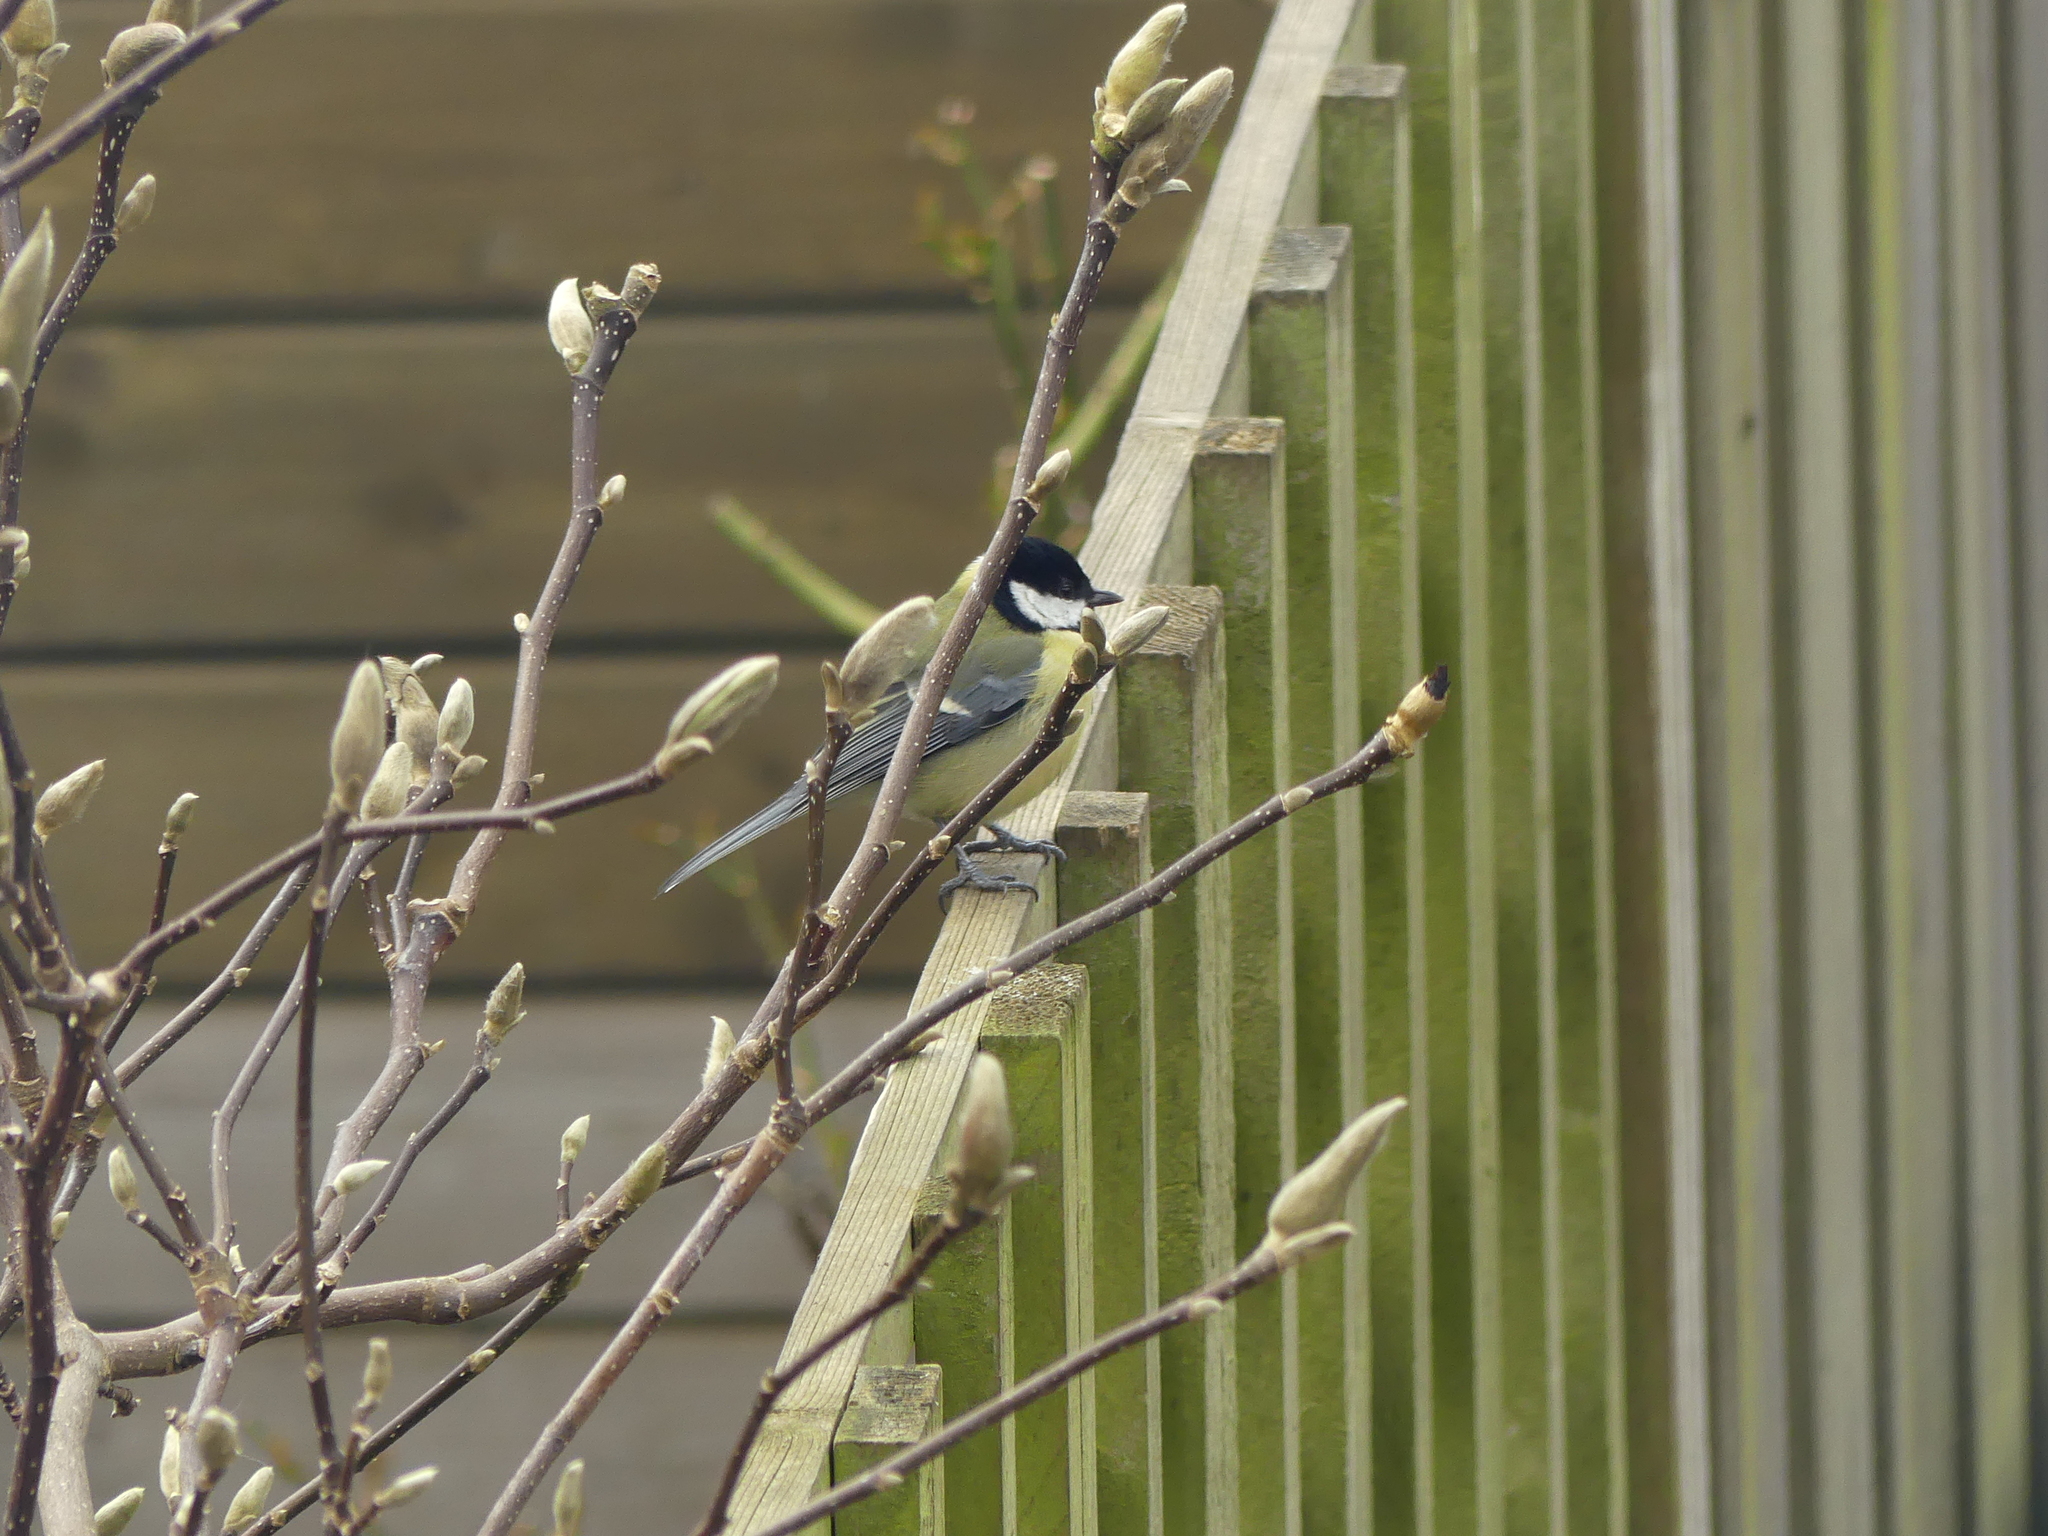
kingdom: Animalia
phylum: Chordata
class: Aves
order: Passeriformes
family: Paridae
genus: Parus
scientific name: Parus major
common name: Great tit
